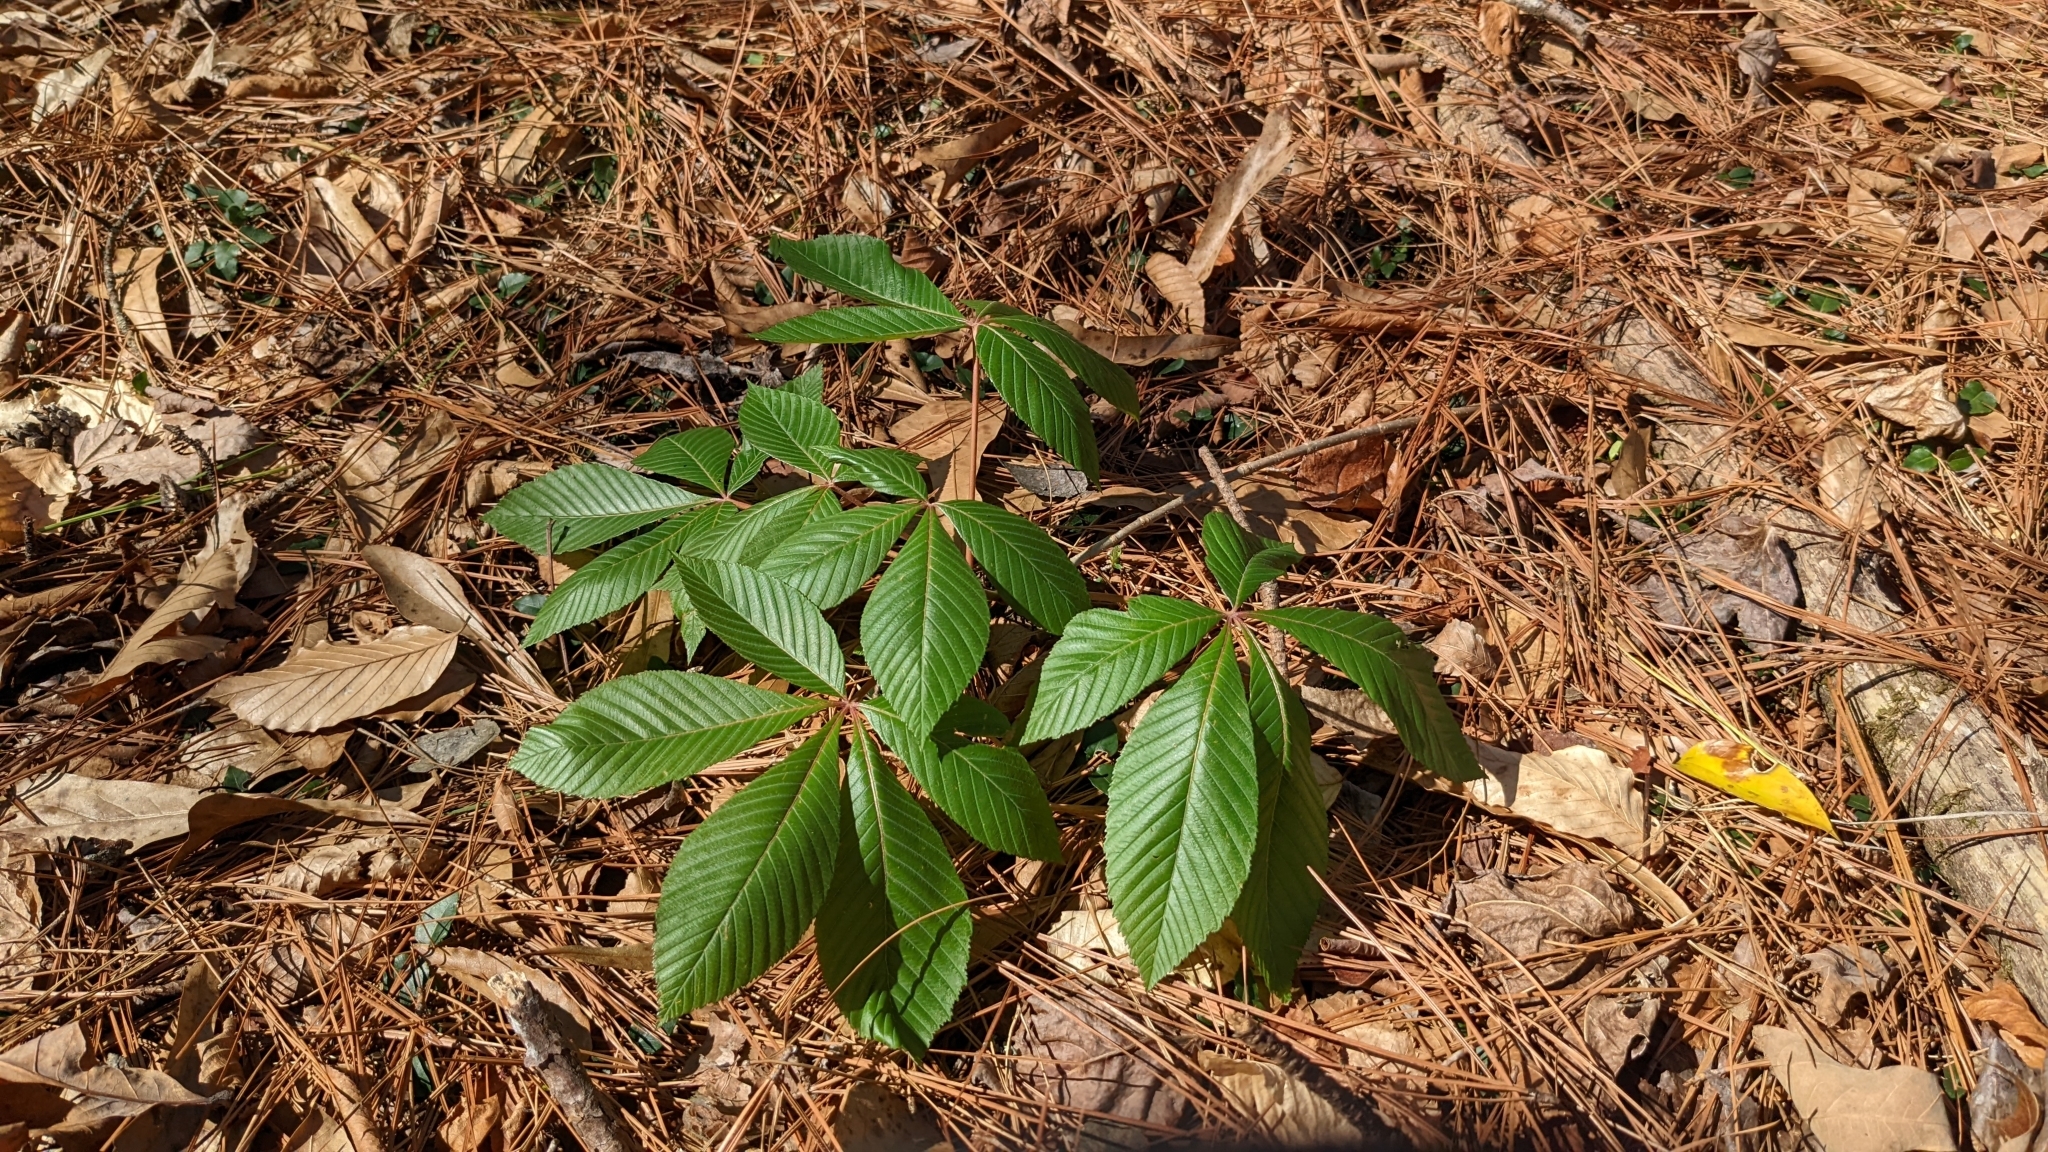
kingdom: Plantae
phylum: Tracheophyta
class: Magnoliopsida
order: Sapindales
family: Sapindaceae
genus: Aesculus
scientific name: Aesculus pavia
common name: Red buckeye
